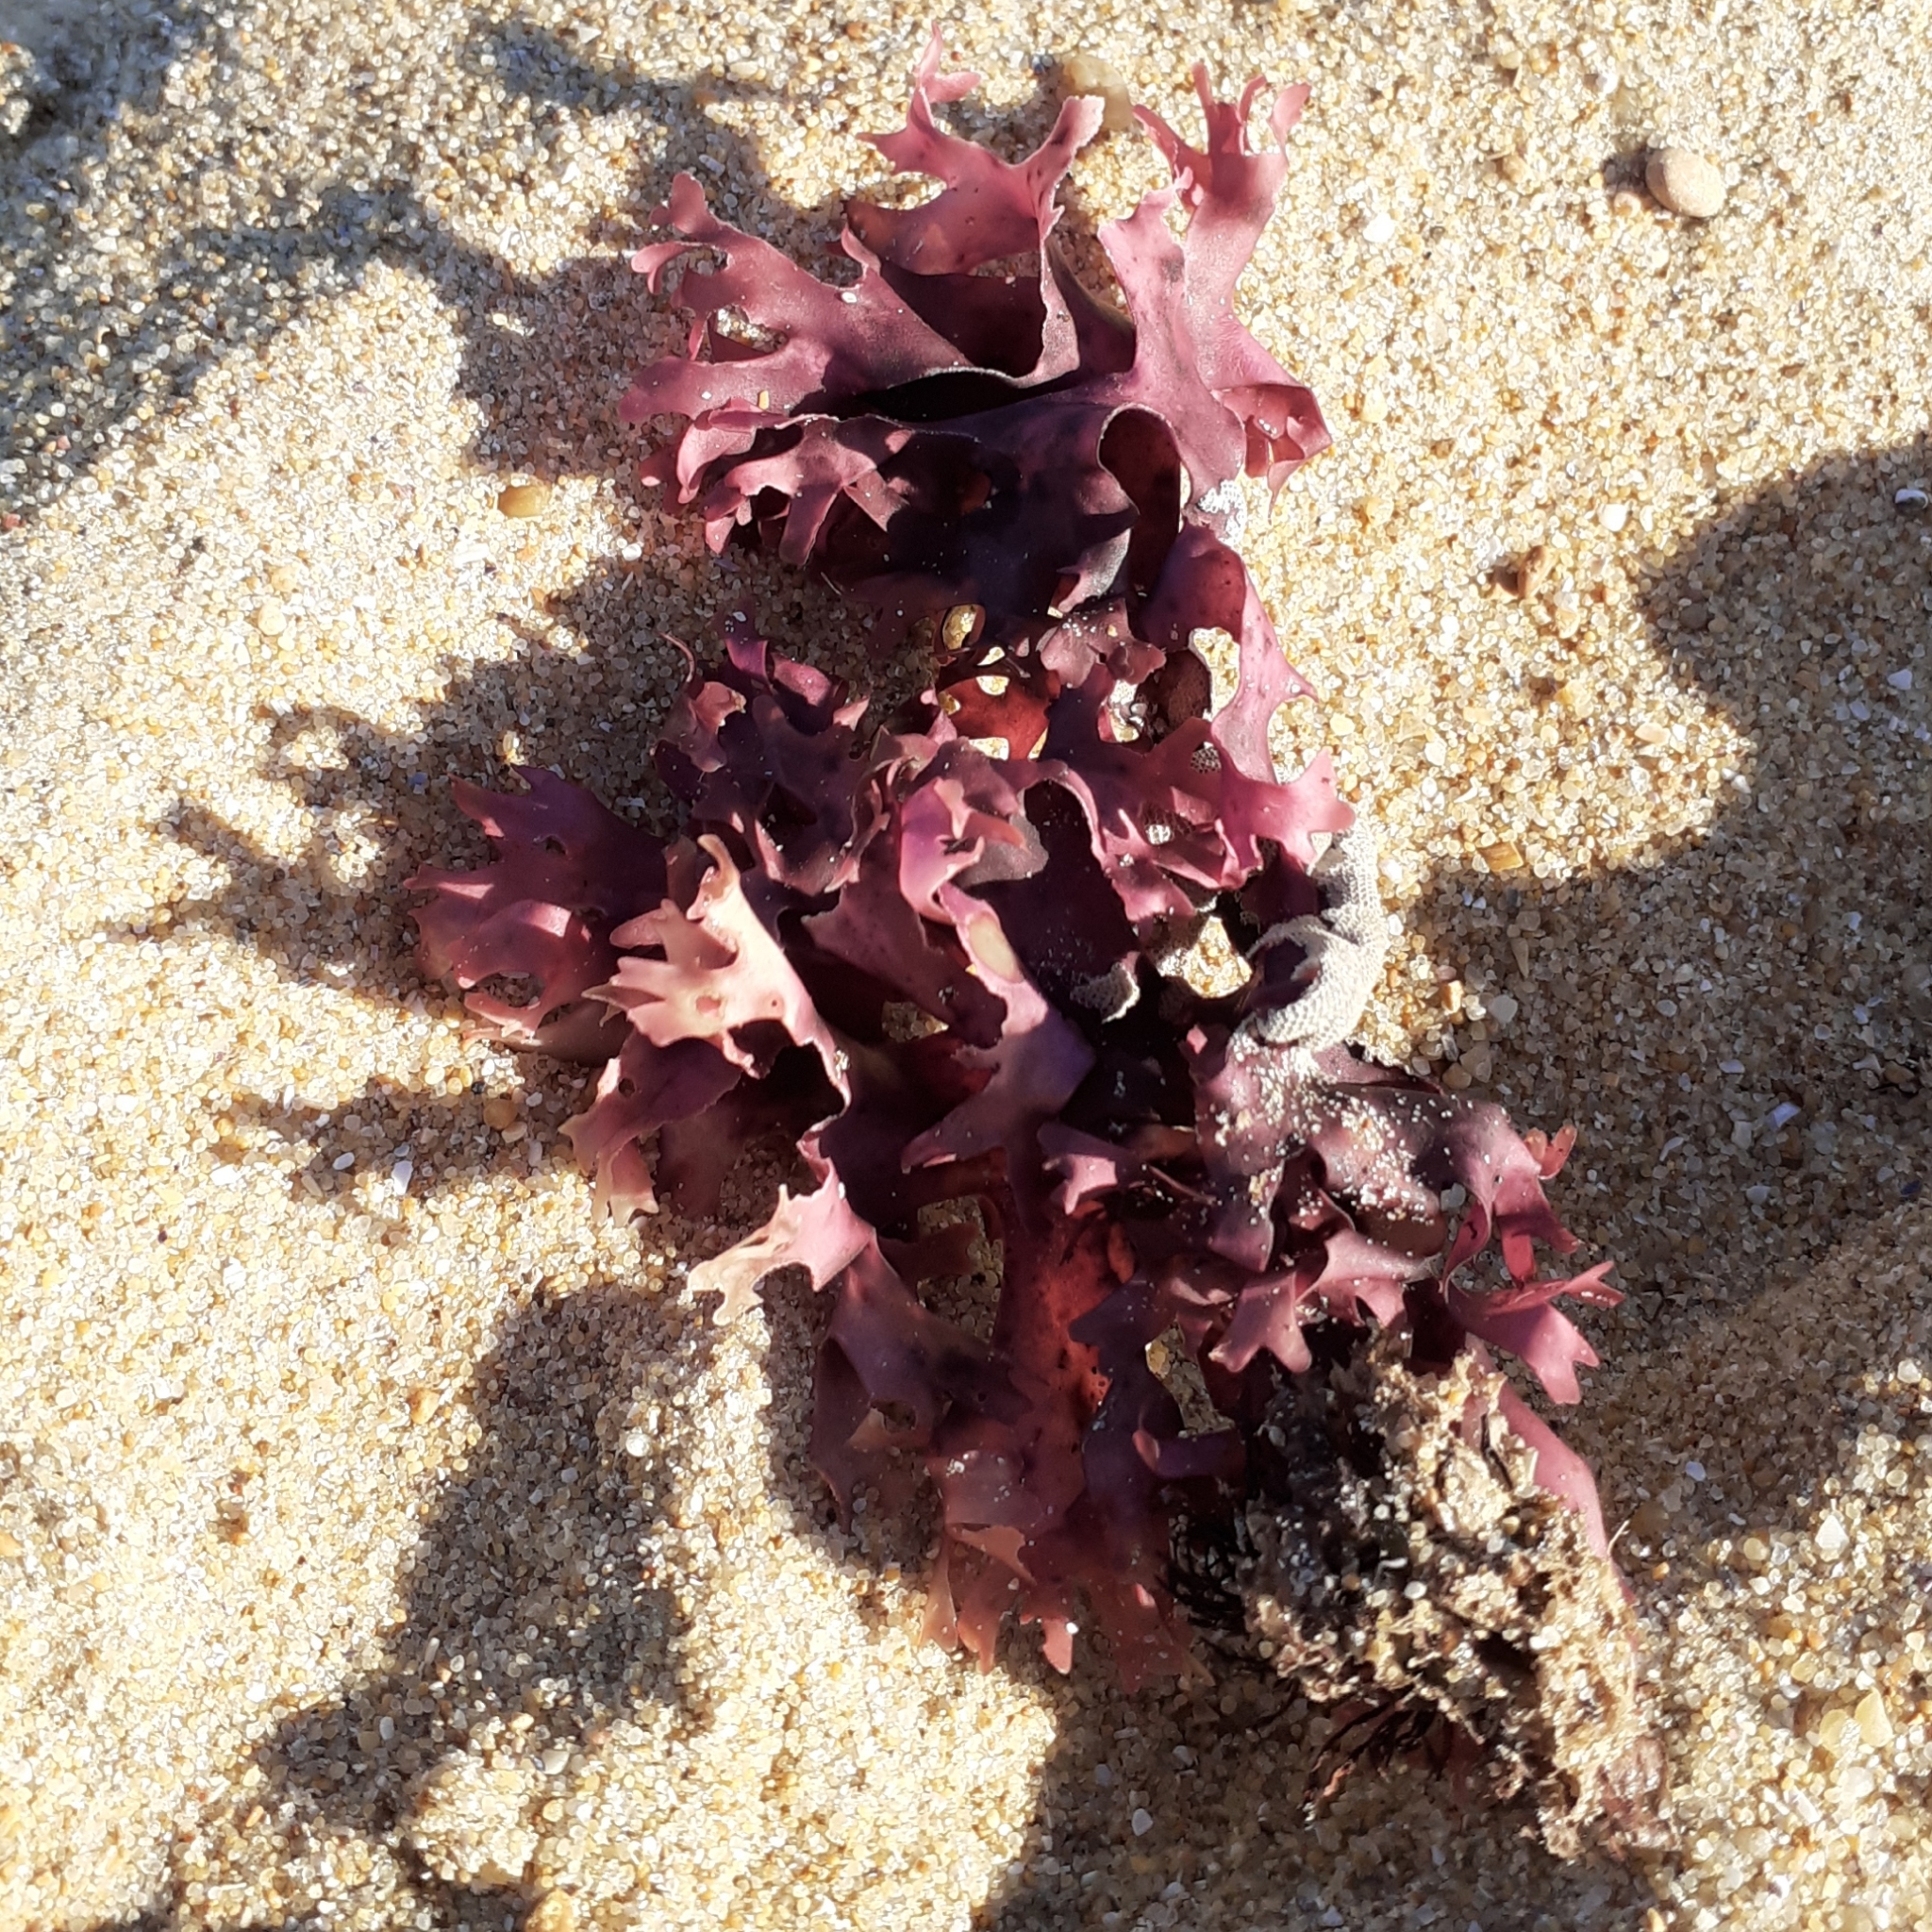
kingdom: Plantae
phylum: Rhodophyta
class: Florideophyceae
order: Gigartinales
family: Gigartinaceae
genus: Chondrus
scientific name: Chondrus crispus
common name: Carrageen
